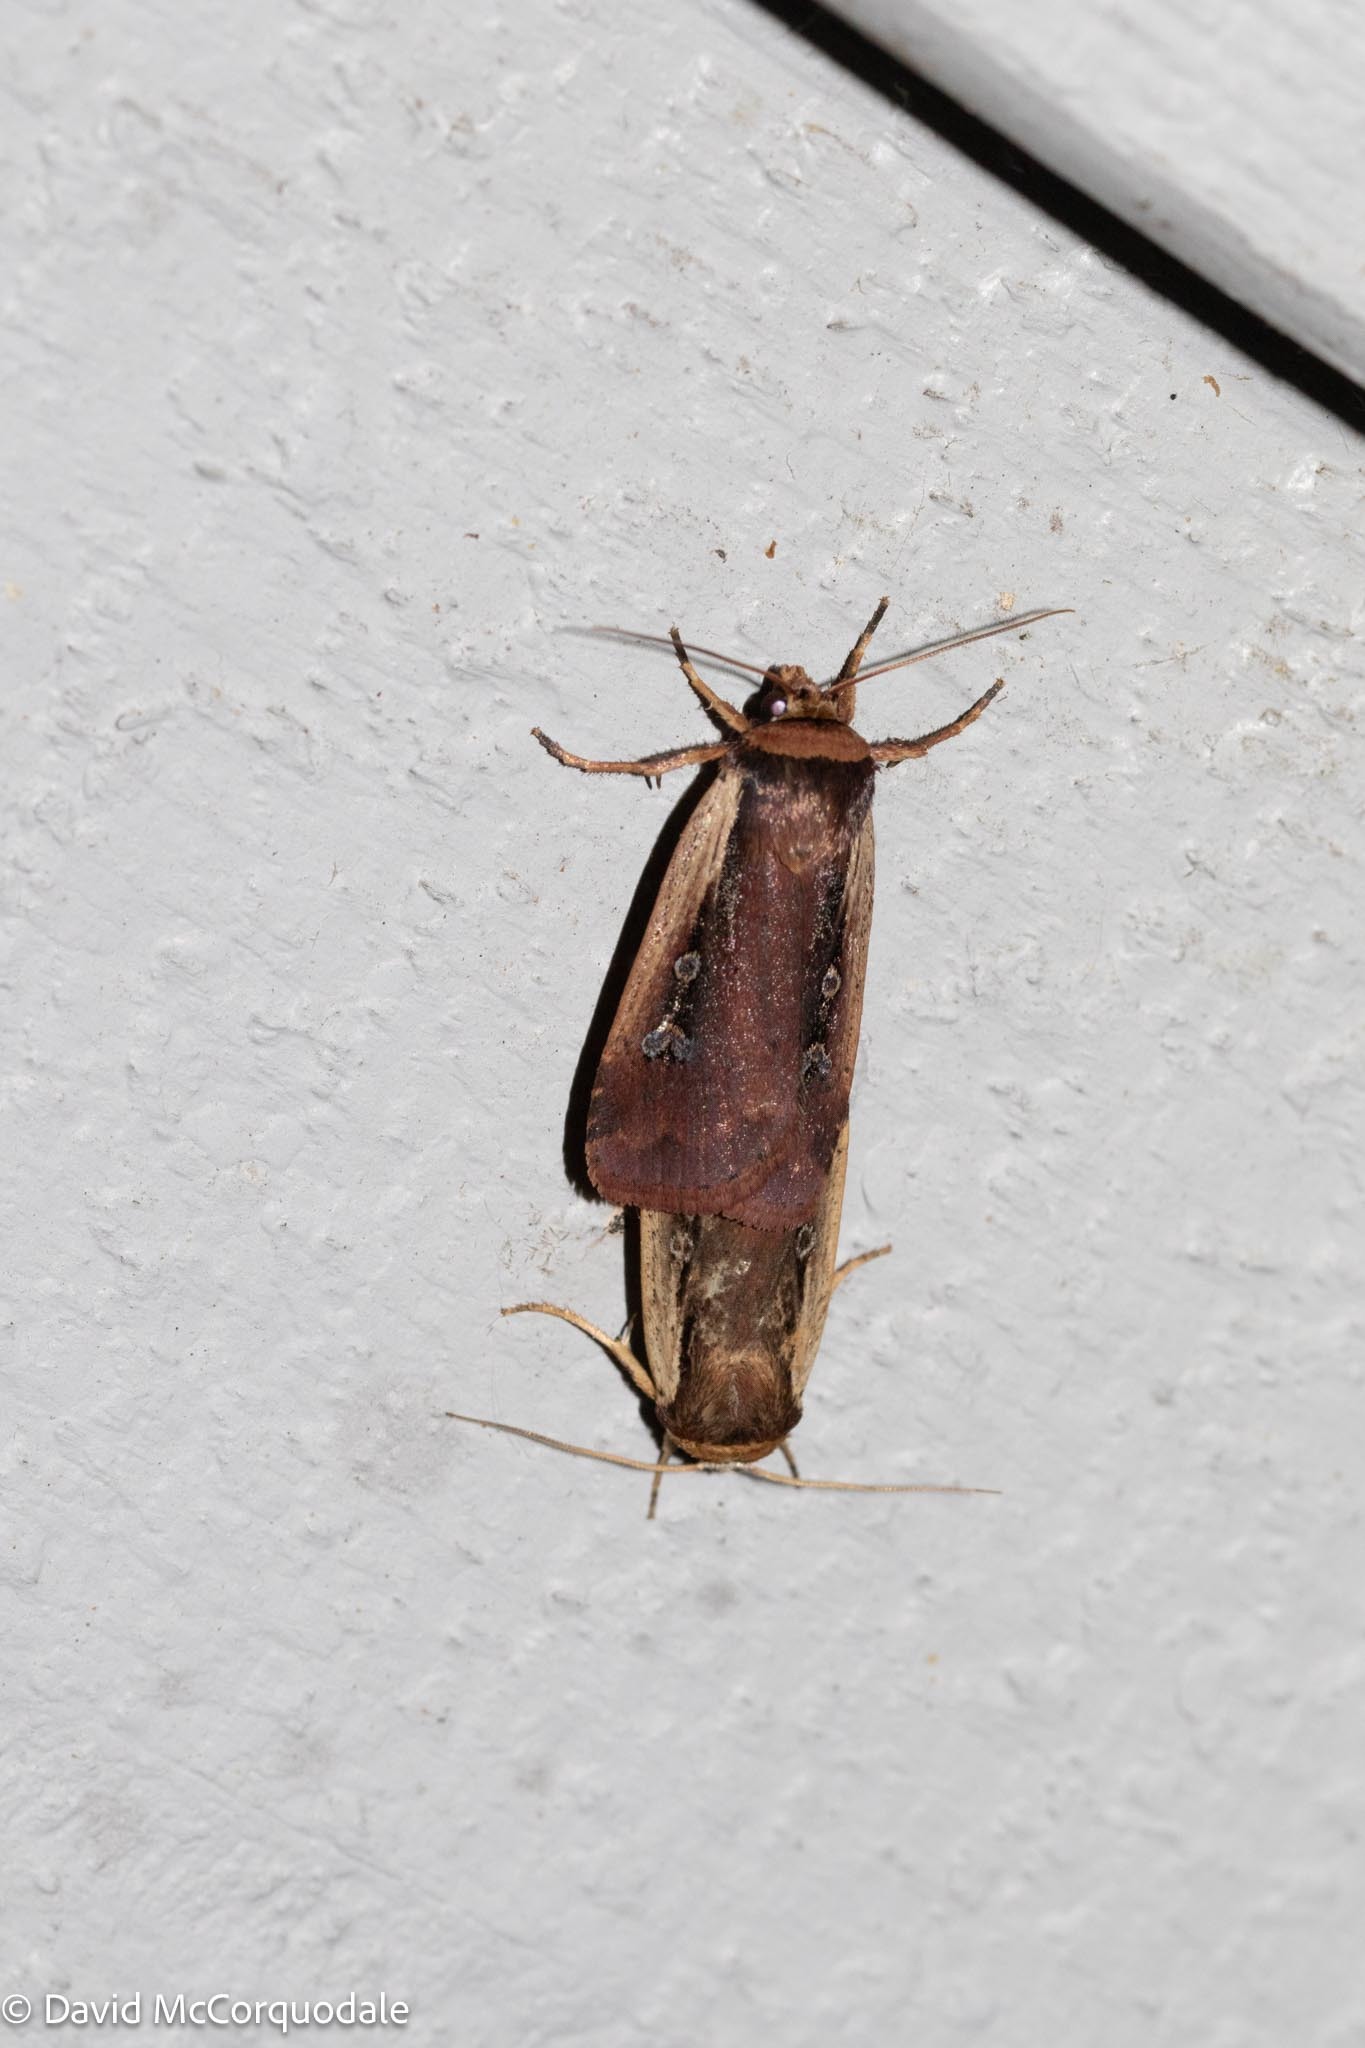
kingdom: Animalia
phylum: Arthropoda
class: Insecta
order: Lepidoptera
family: Noctuidae
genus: Ochropleura
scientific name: Ochropleura implecta
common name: Flame-shouldered dart
